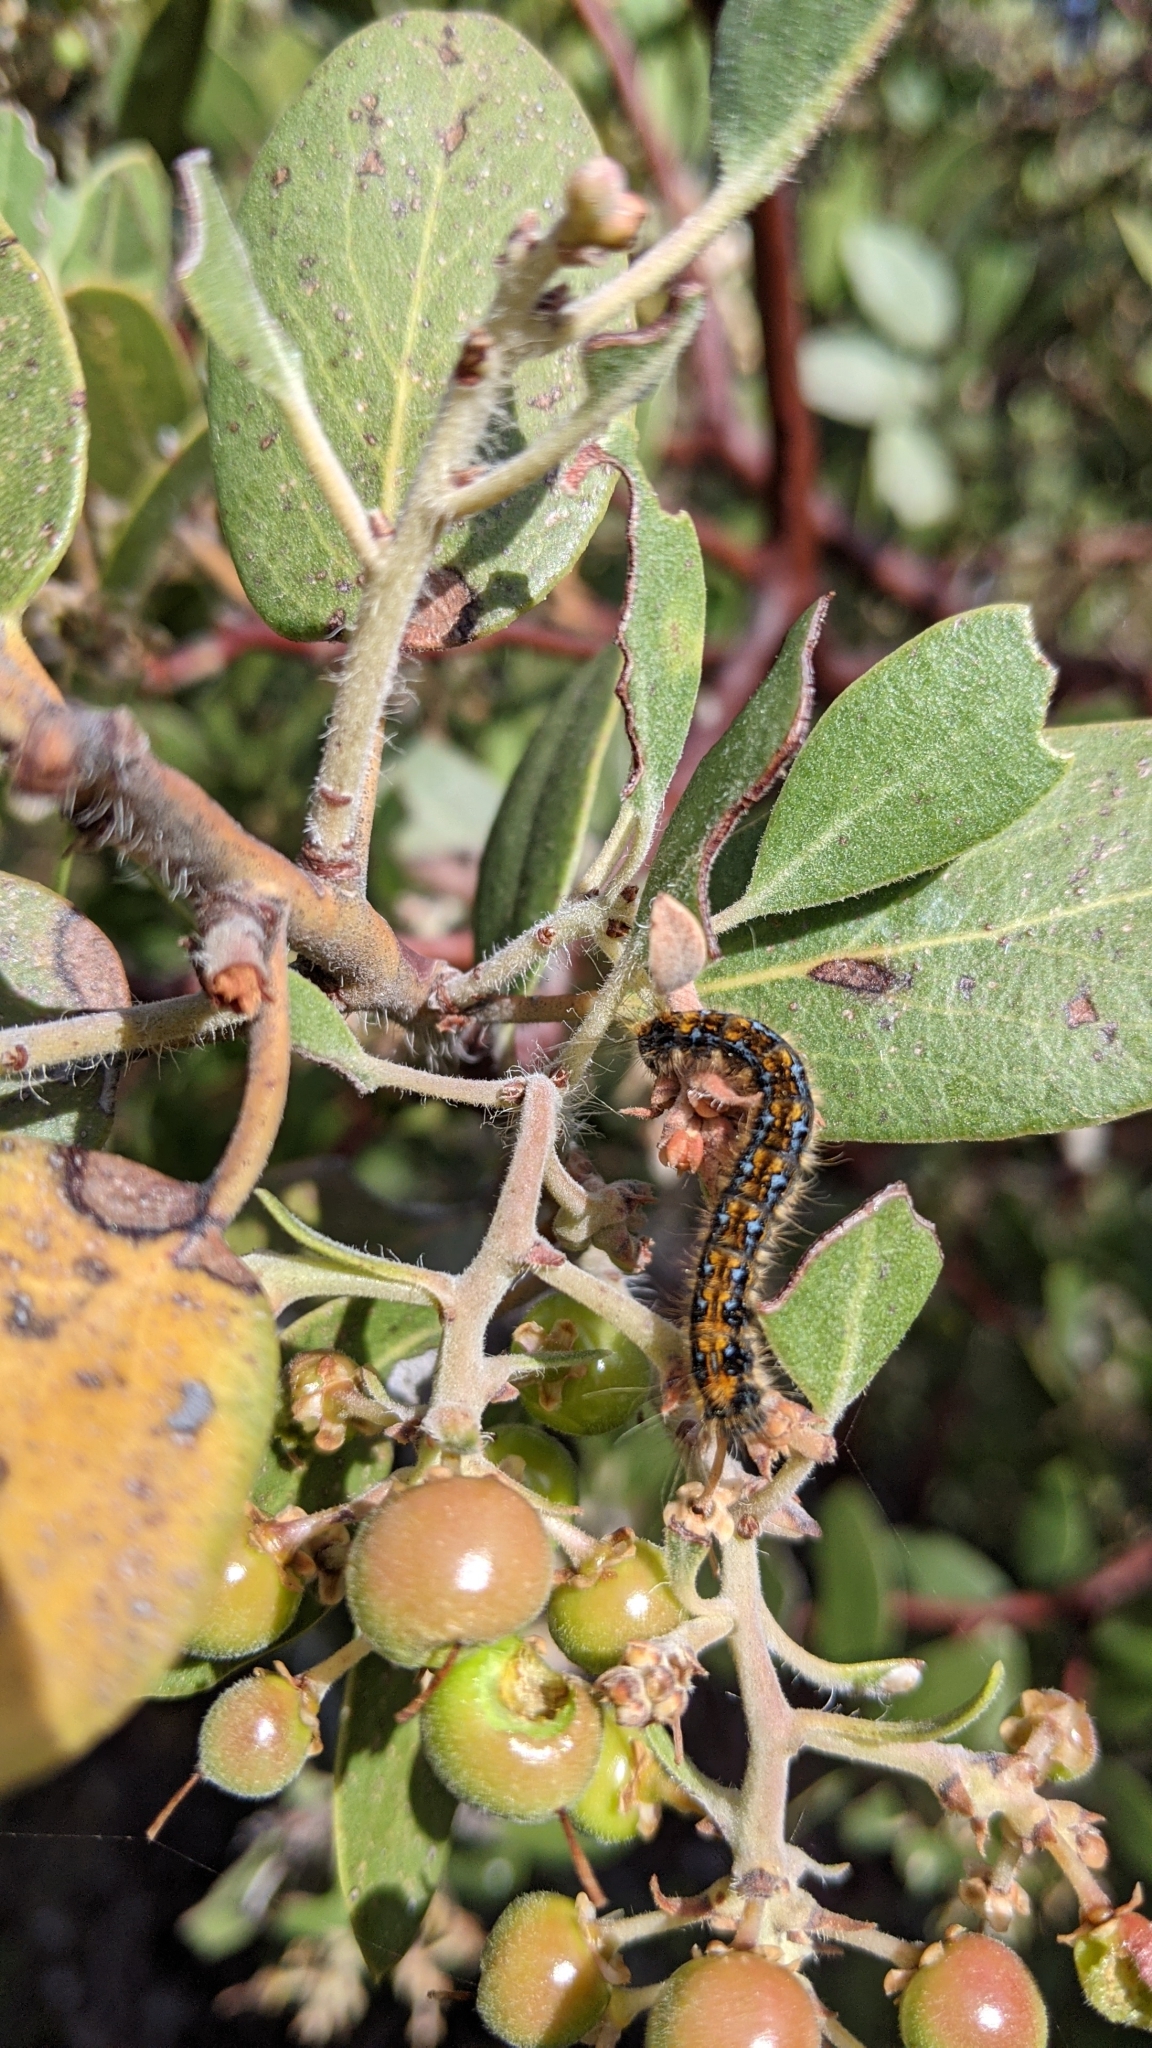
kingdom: Animalia
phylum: Arthropoda
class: Insecta
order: Lepidoptera
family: Lasiocampidae
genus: Malacosoma
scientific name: Malacosoma californica
